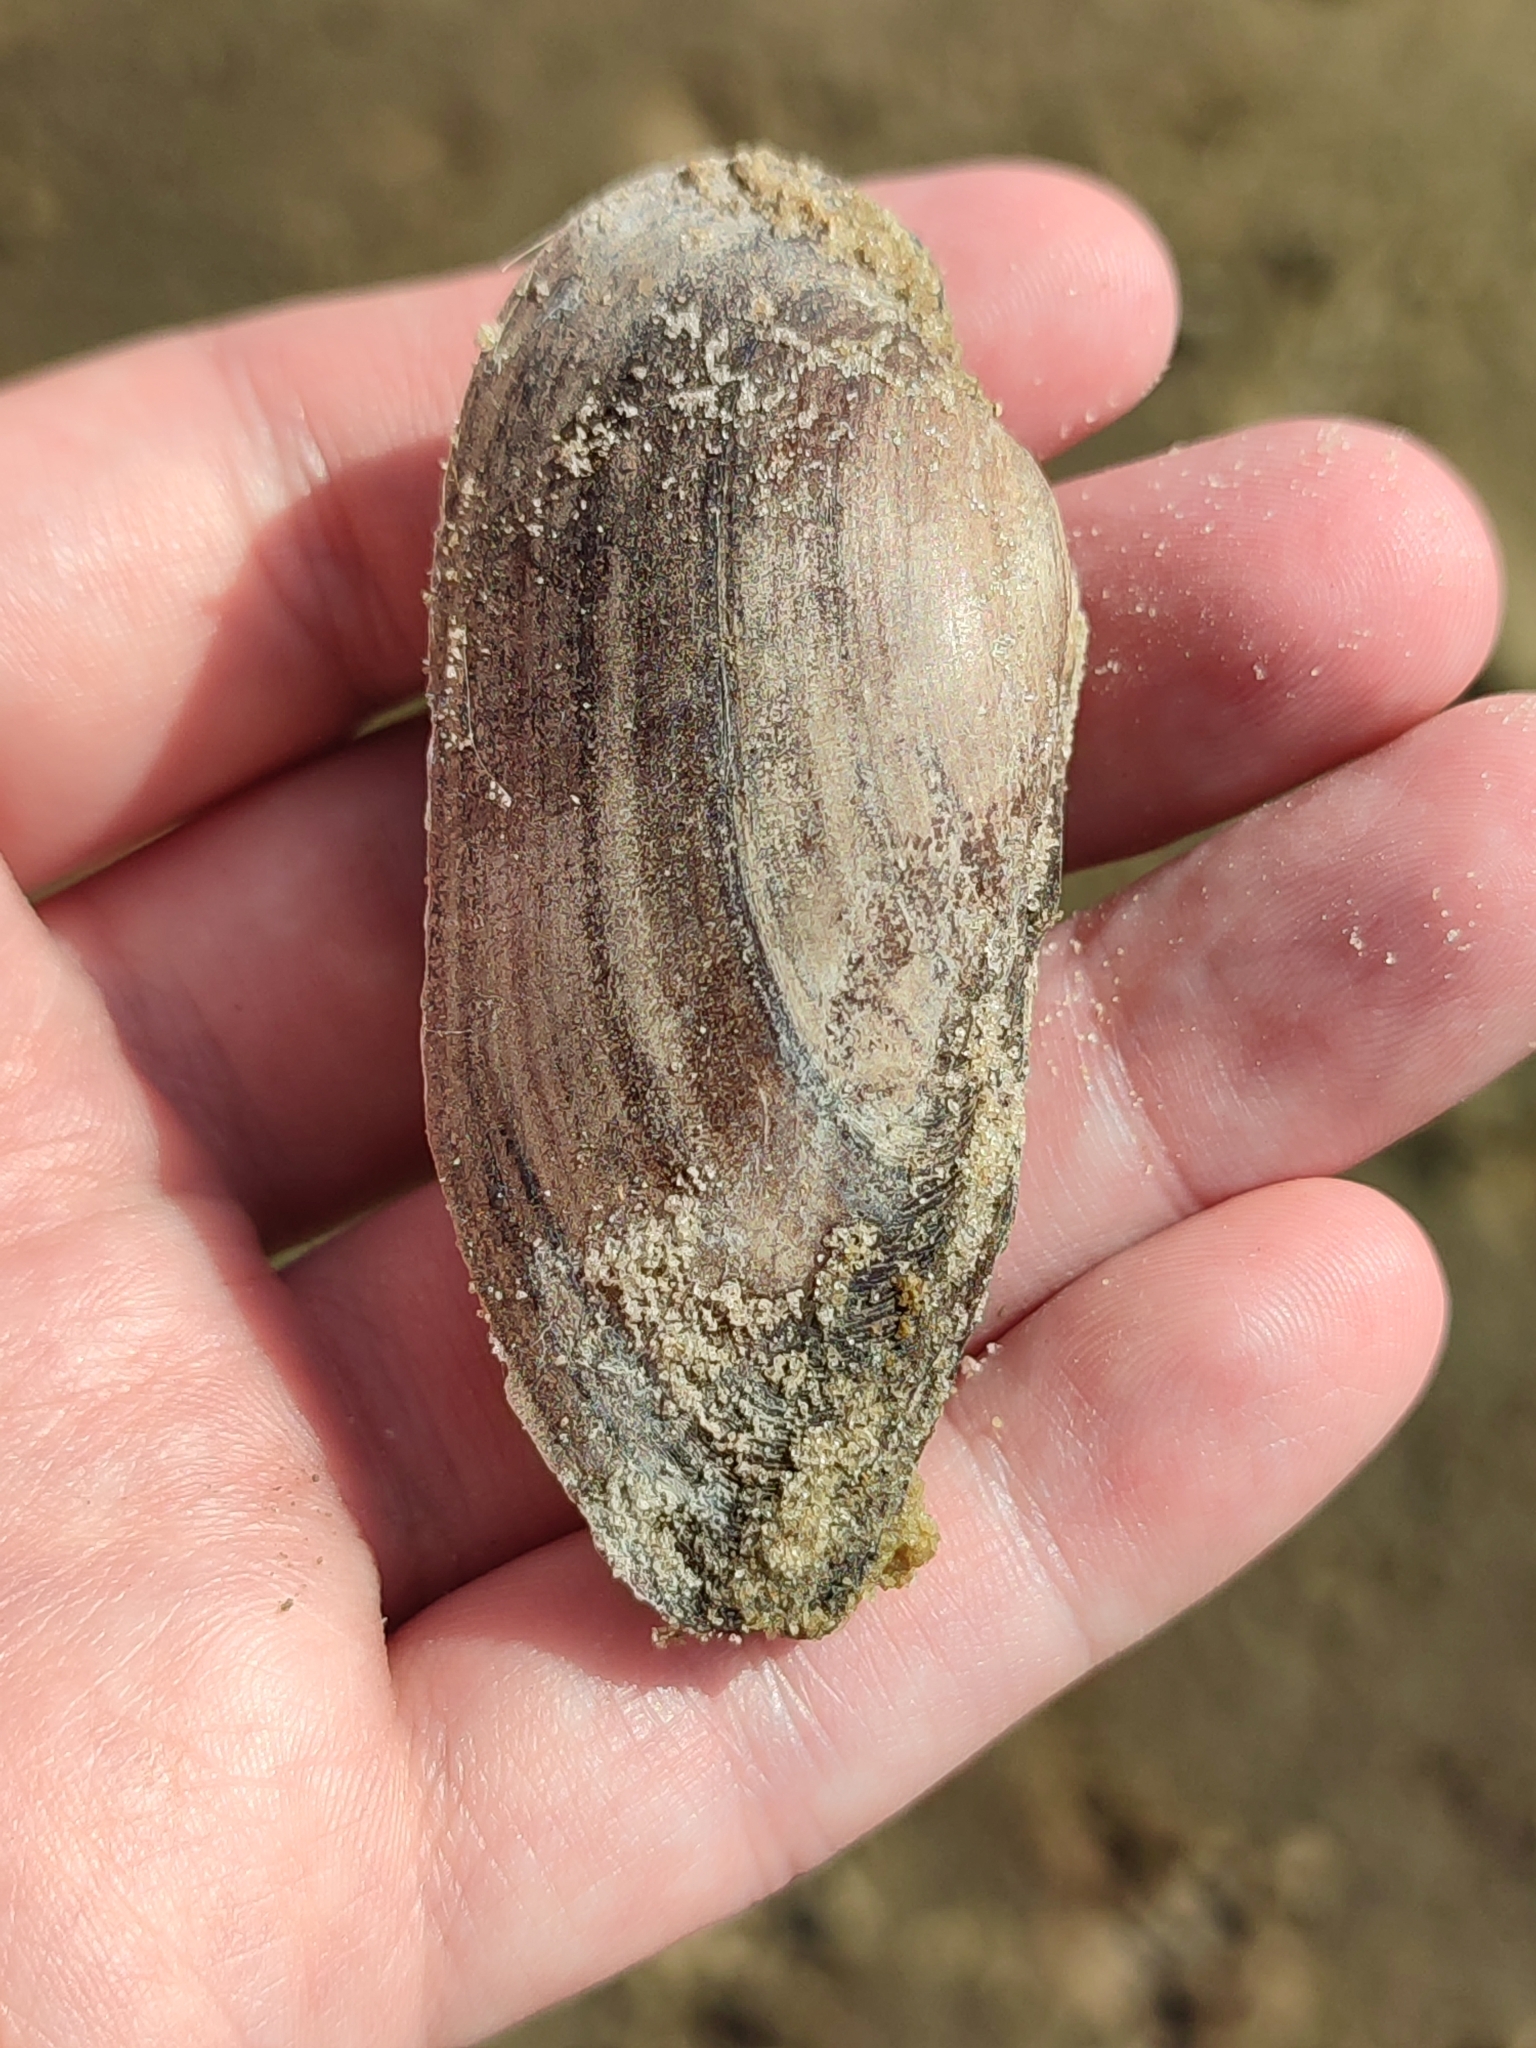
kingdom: Animalia
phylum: Mollusca
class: Bivalvia
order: Unionida
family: Unionidae
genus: Unio
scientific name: Unio pictorum
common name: Painter's mussel
